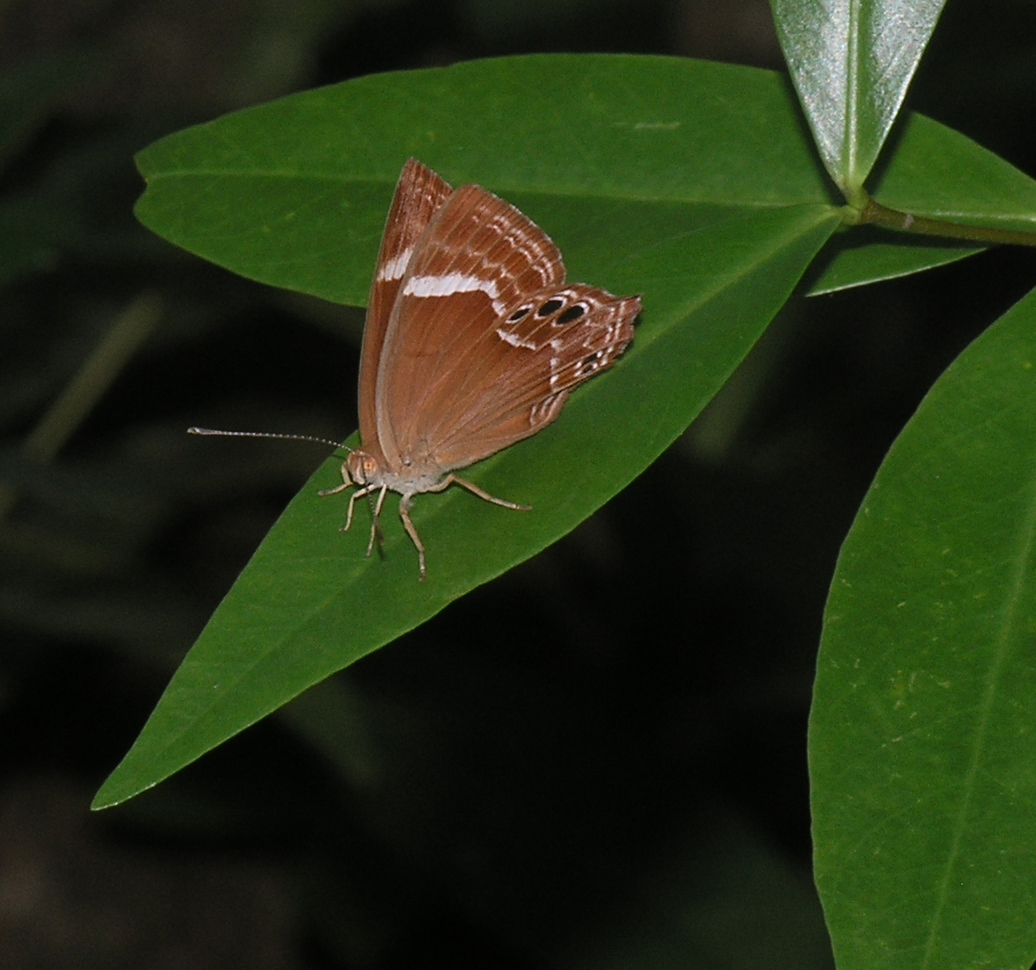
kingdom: Animalia
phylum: Arthropoda
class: Insecta
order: Lepidoptera
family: Lycaenidae
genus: Abisara
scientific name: Abisara neavei
